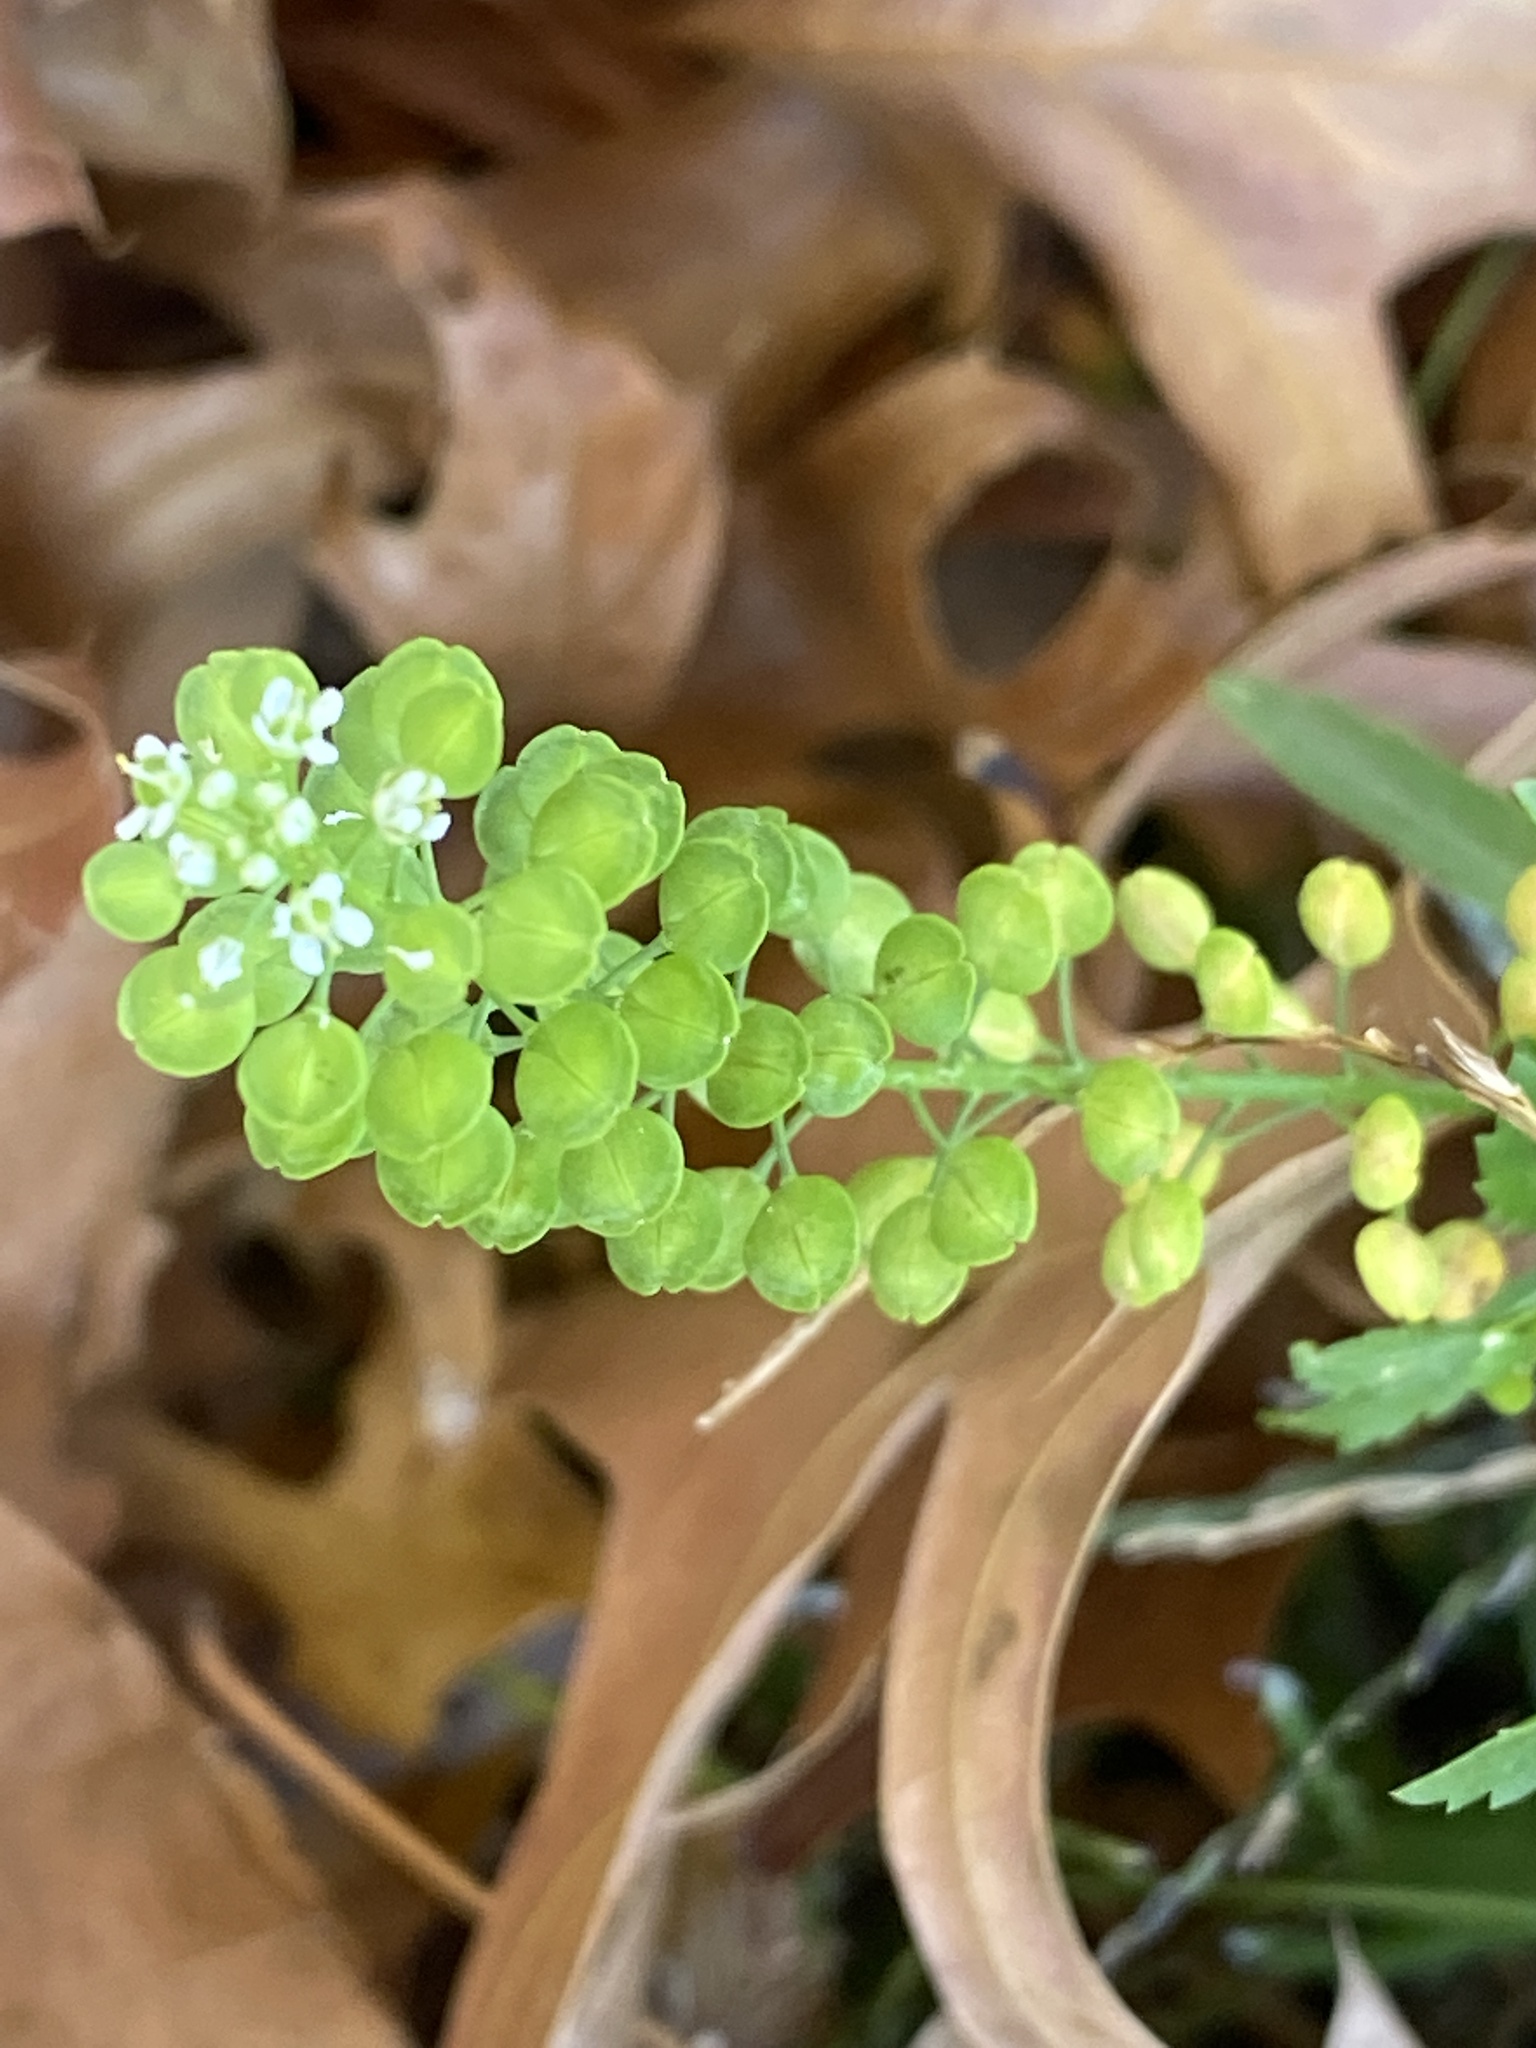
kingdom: Plantae
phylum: Tracheophyta
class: Magnoliopsida
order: Brassicales
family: Brassicaceae
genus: Lepidium
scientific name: Lepidium virginicum
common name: Least pepperwort
